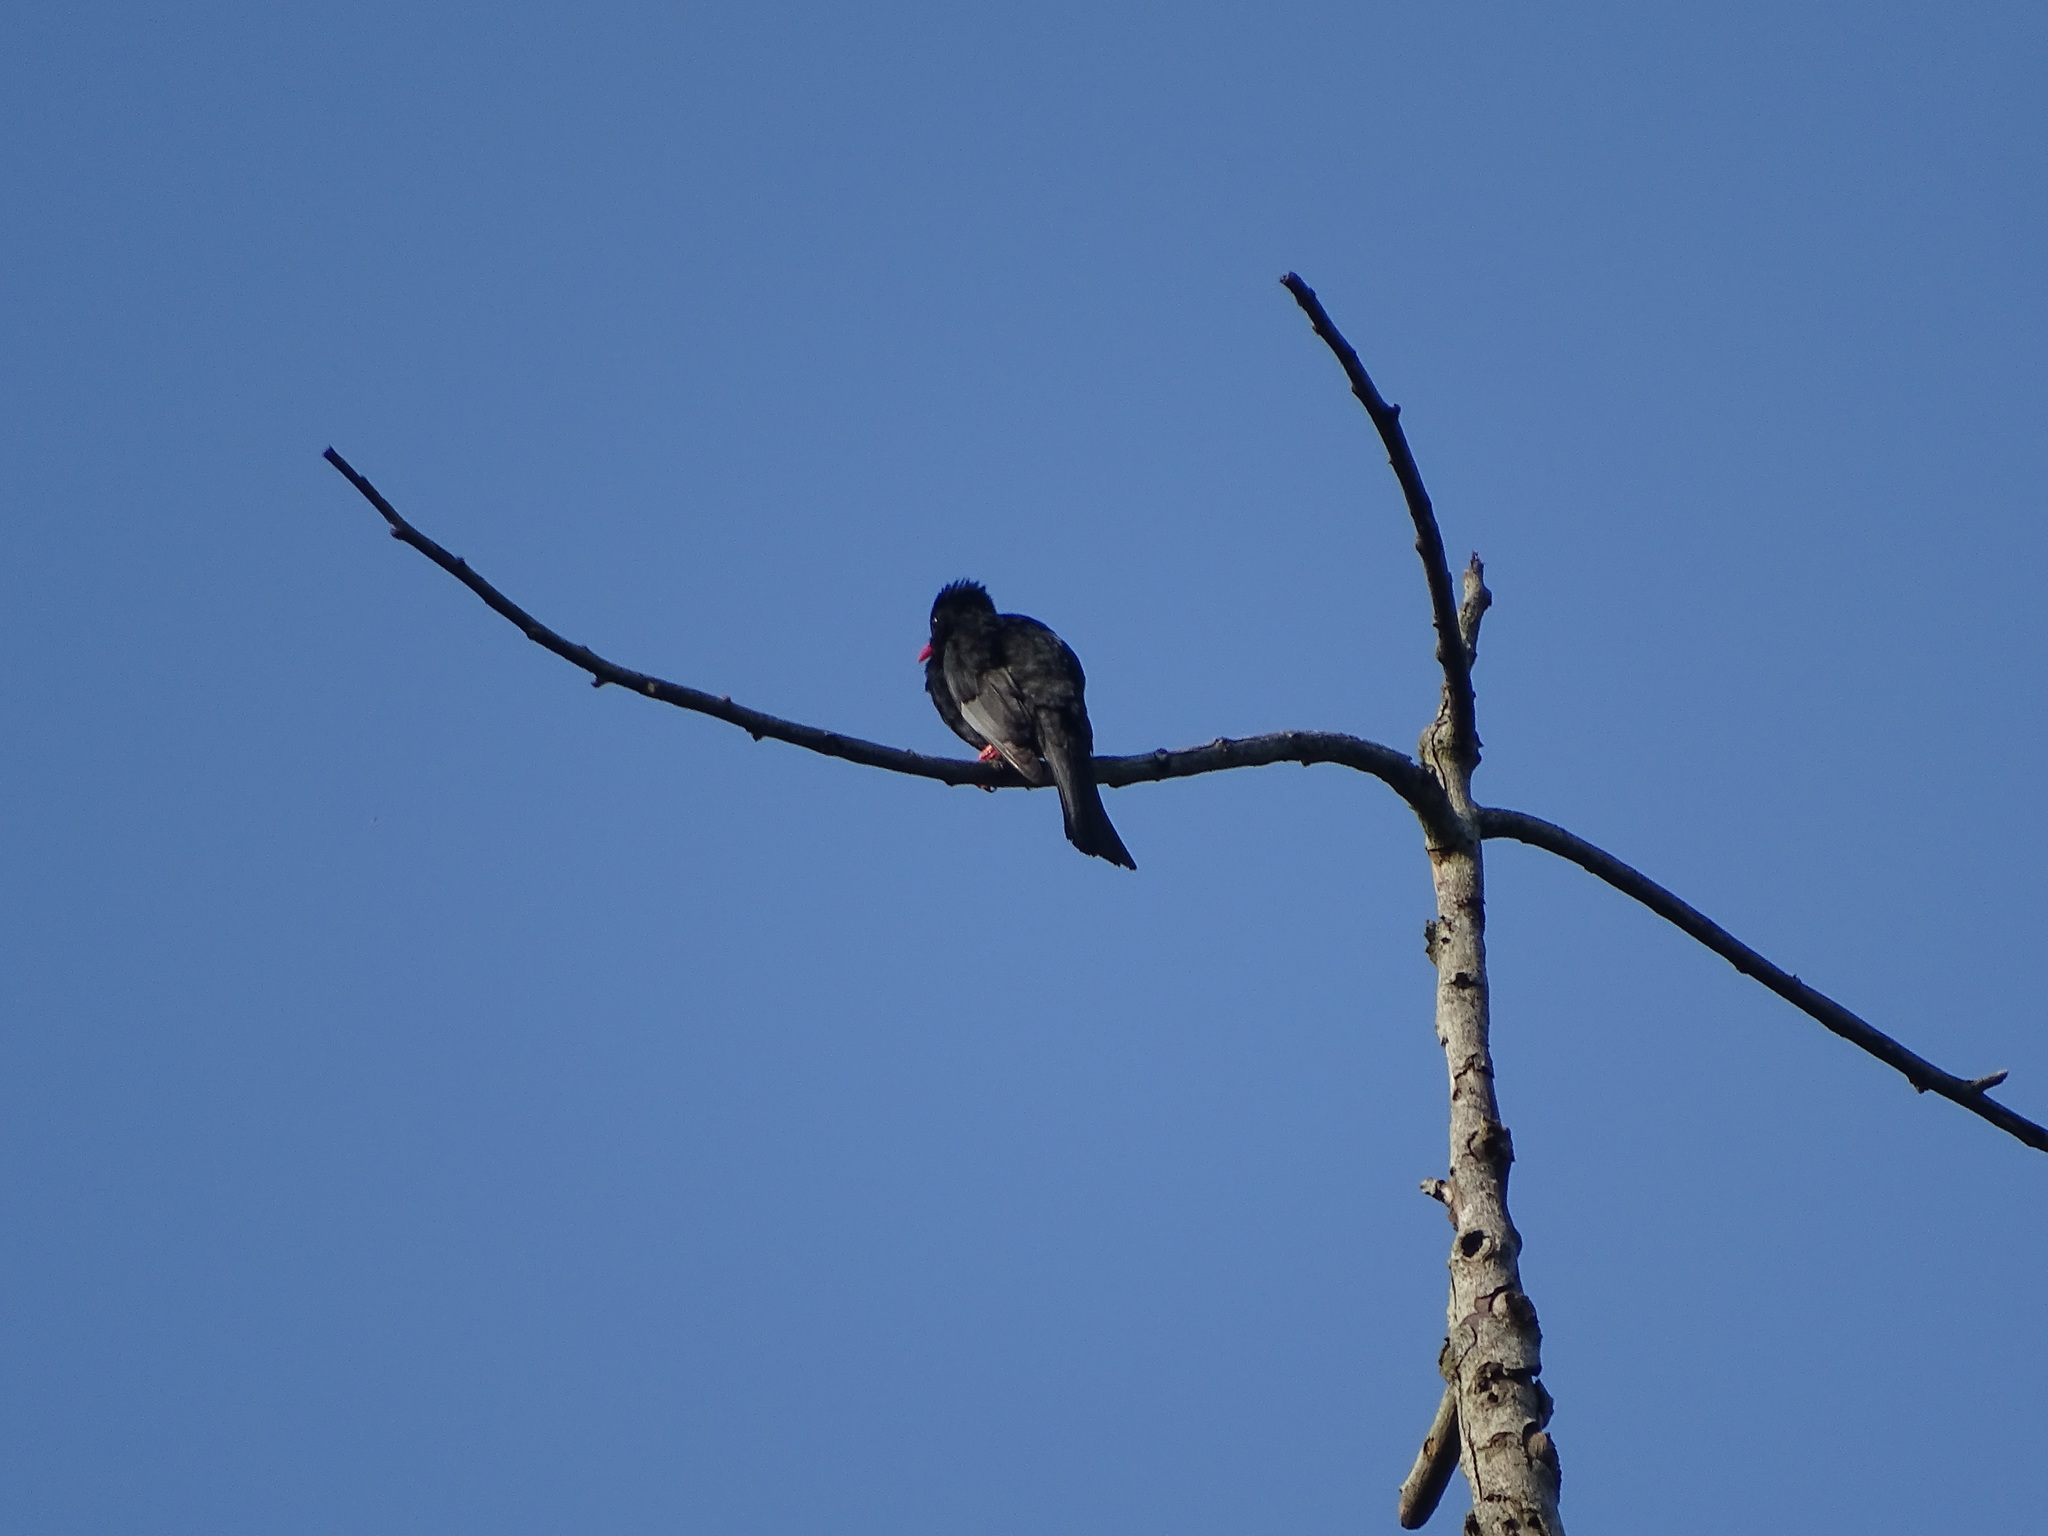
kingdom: Animalia
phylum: Chordata
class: Aves
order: Passeriformes
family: Pycnonotidae
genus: Hypsipetes
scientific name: Hypsipetes leucocephalus
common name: Black bulbul
